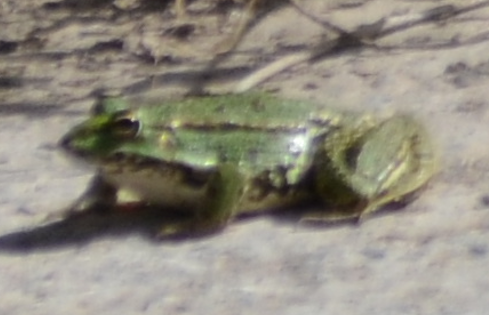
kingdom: Animalia
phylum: Chordata
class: Amphibia
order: Anura
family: Ranidae
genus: Pelophylax
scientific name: Pelophylax perezi
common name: Perez's frog
